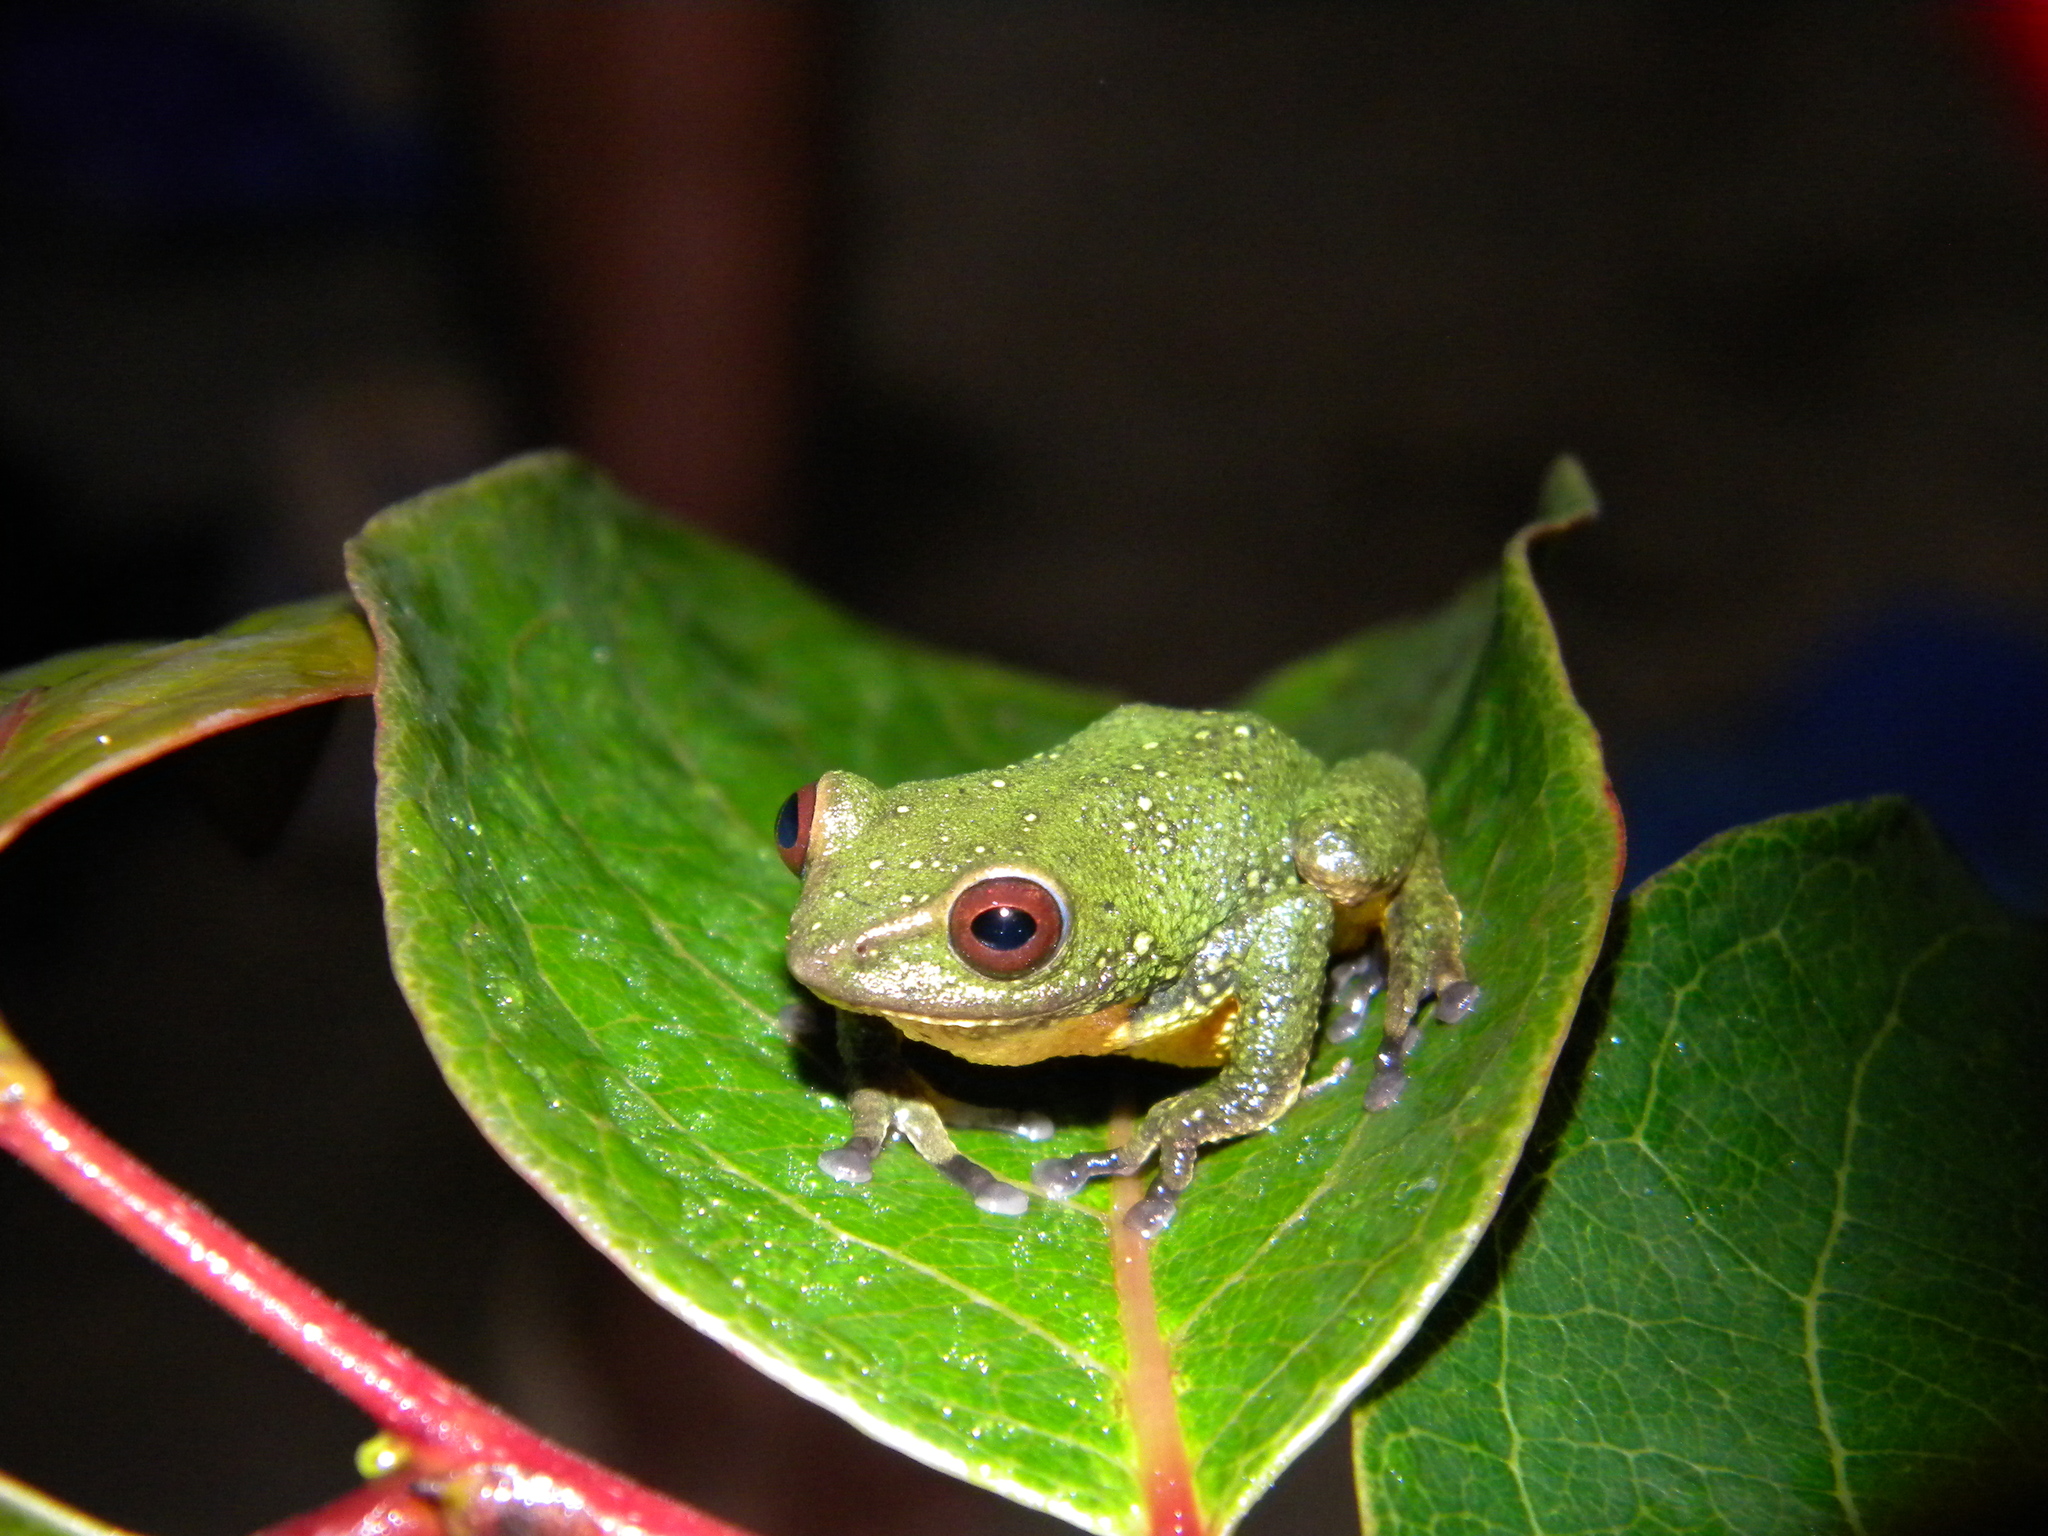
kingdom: Animalia
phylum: Chordata
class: Amphibia
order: Anura
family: Rhacophoridae
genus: Raorchestes
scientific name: Raorchestes silentvalley
